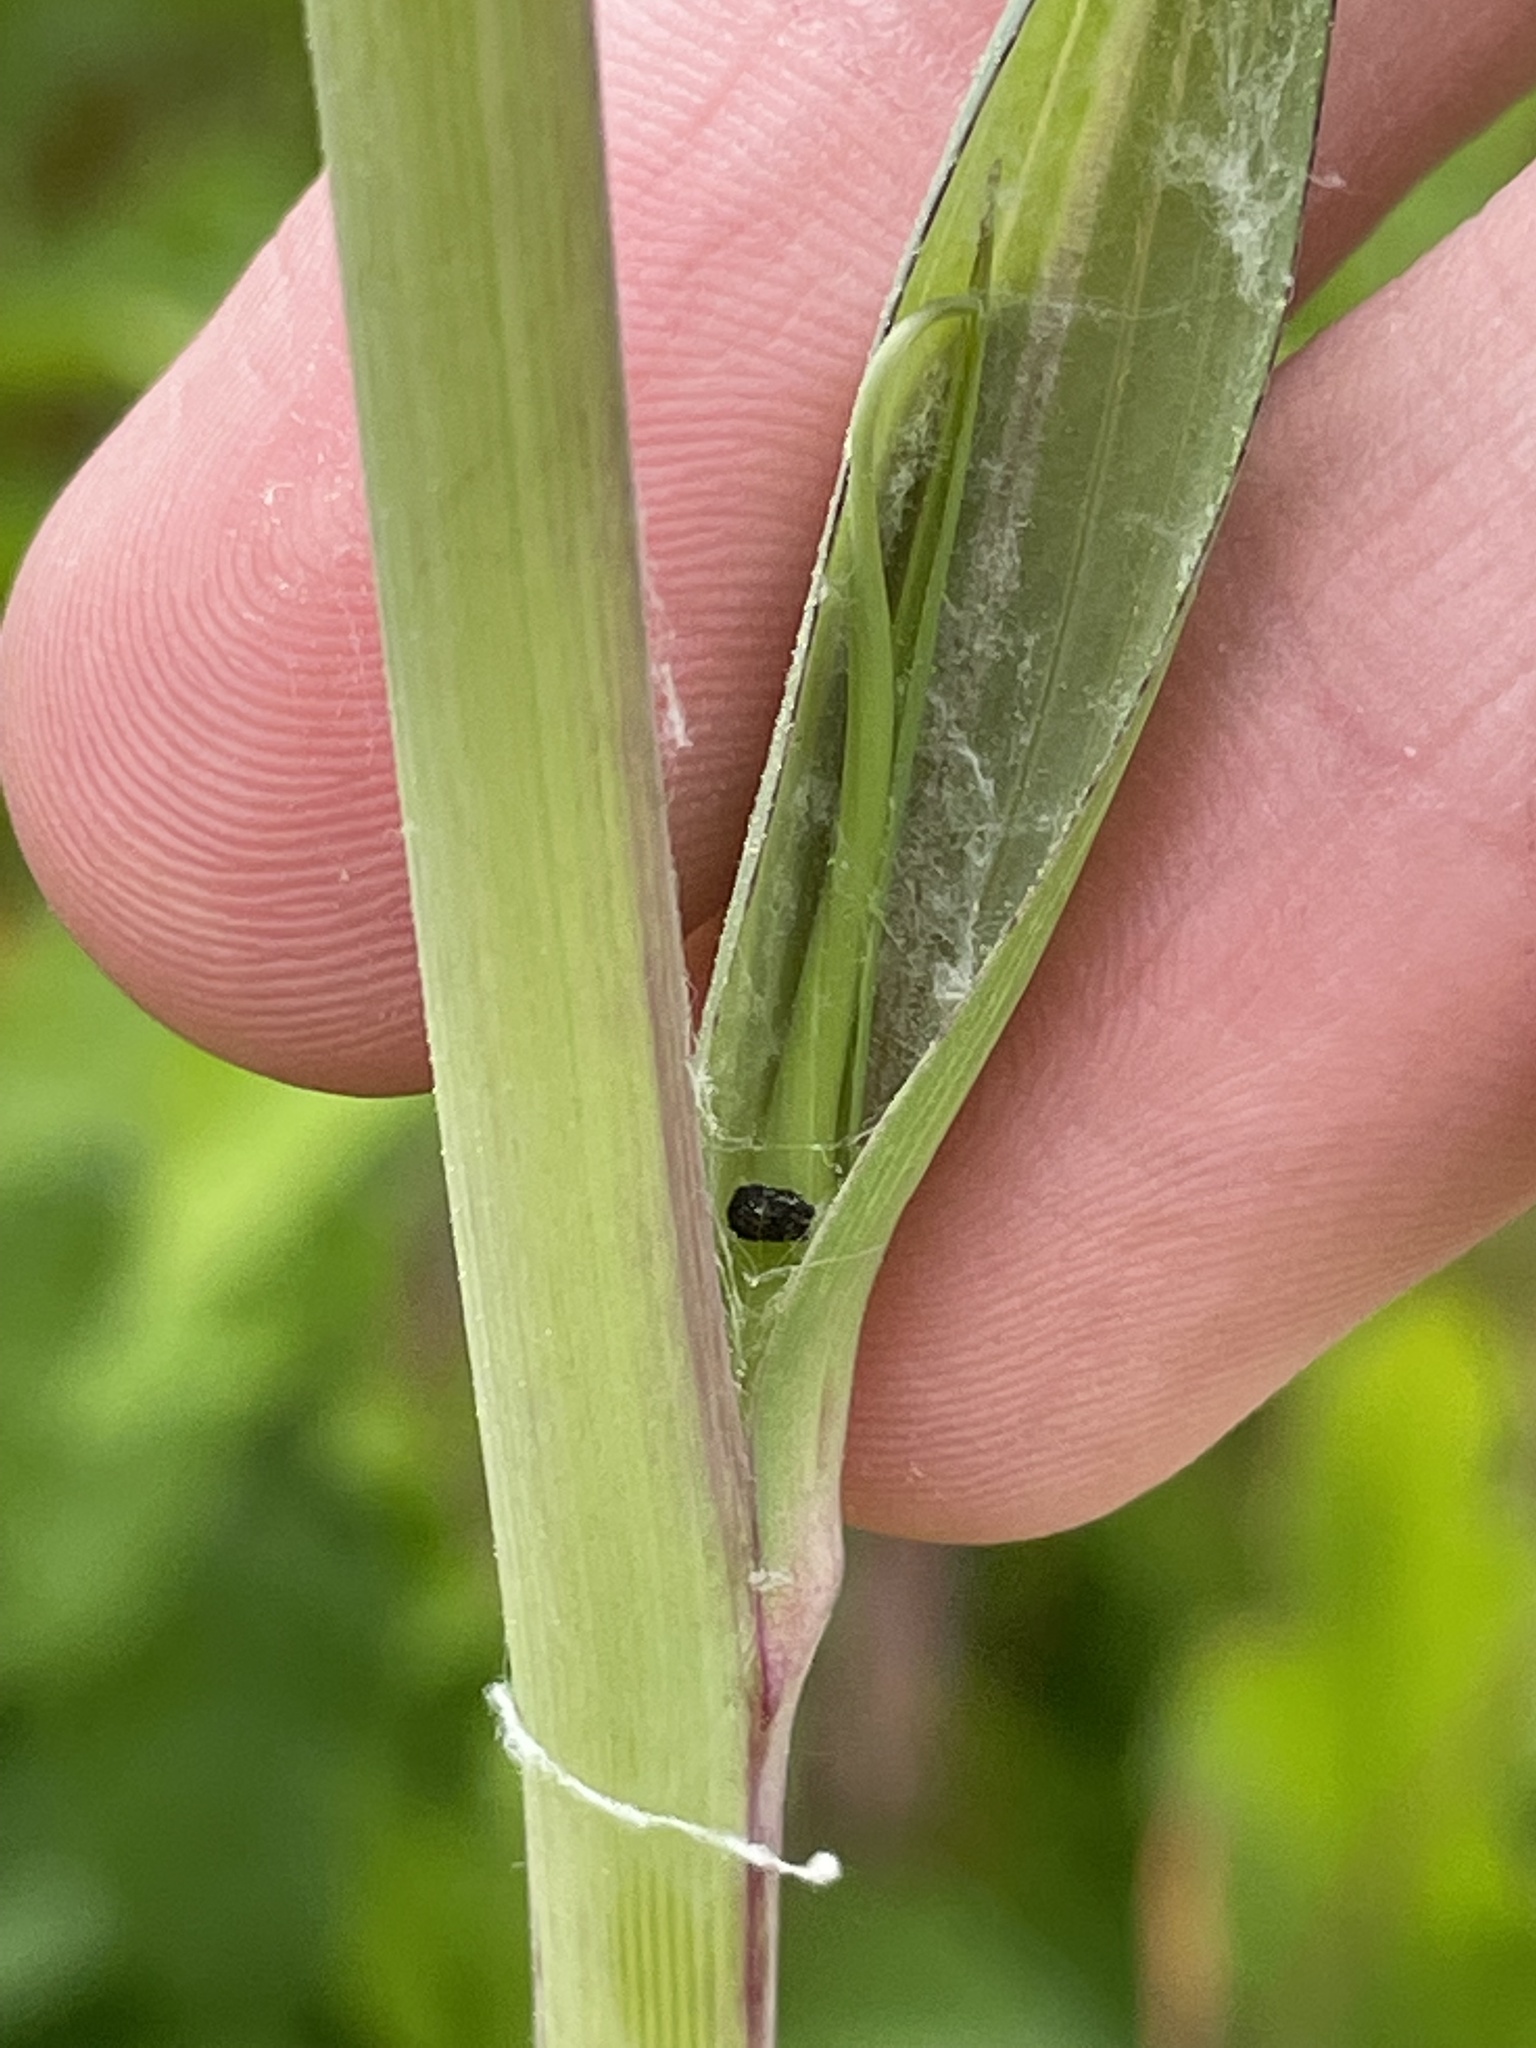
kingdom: Plantae
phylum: Tracheophyta
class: Magnoliopsida
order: Asterales
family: Asteraceae
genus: Tragopogon
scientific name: Tragopogon dubius
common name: Yellow salsify
